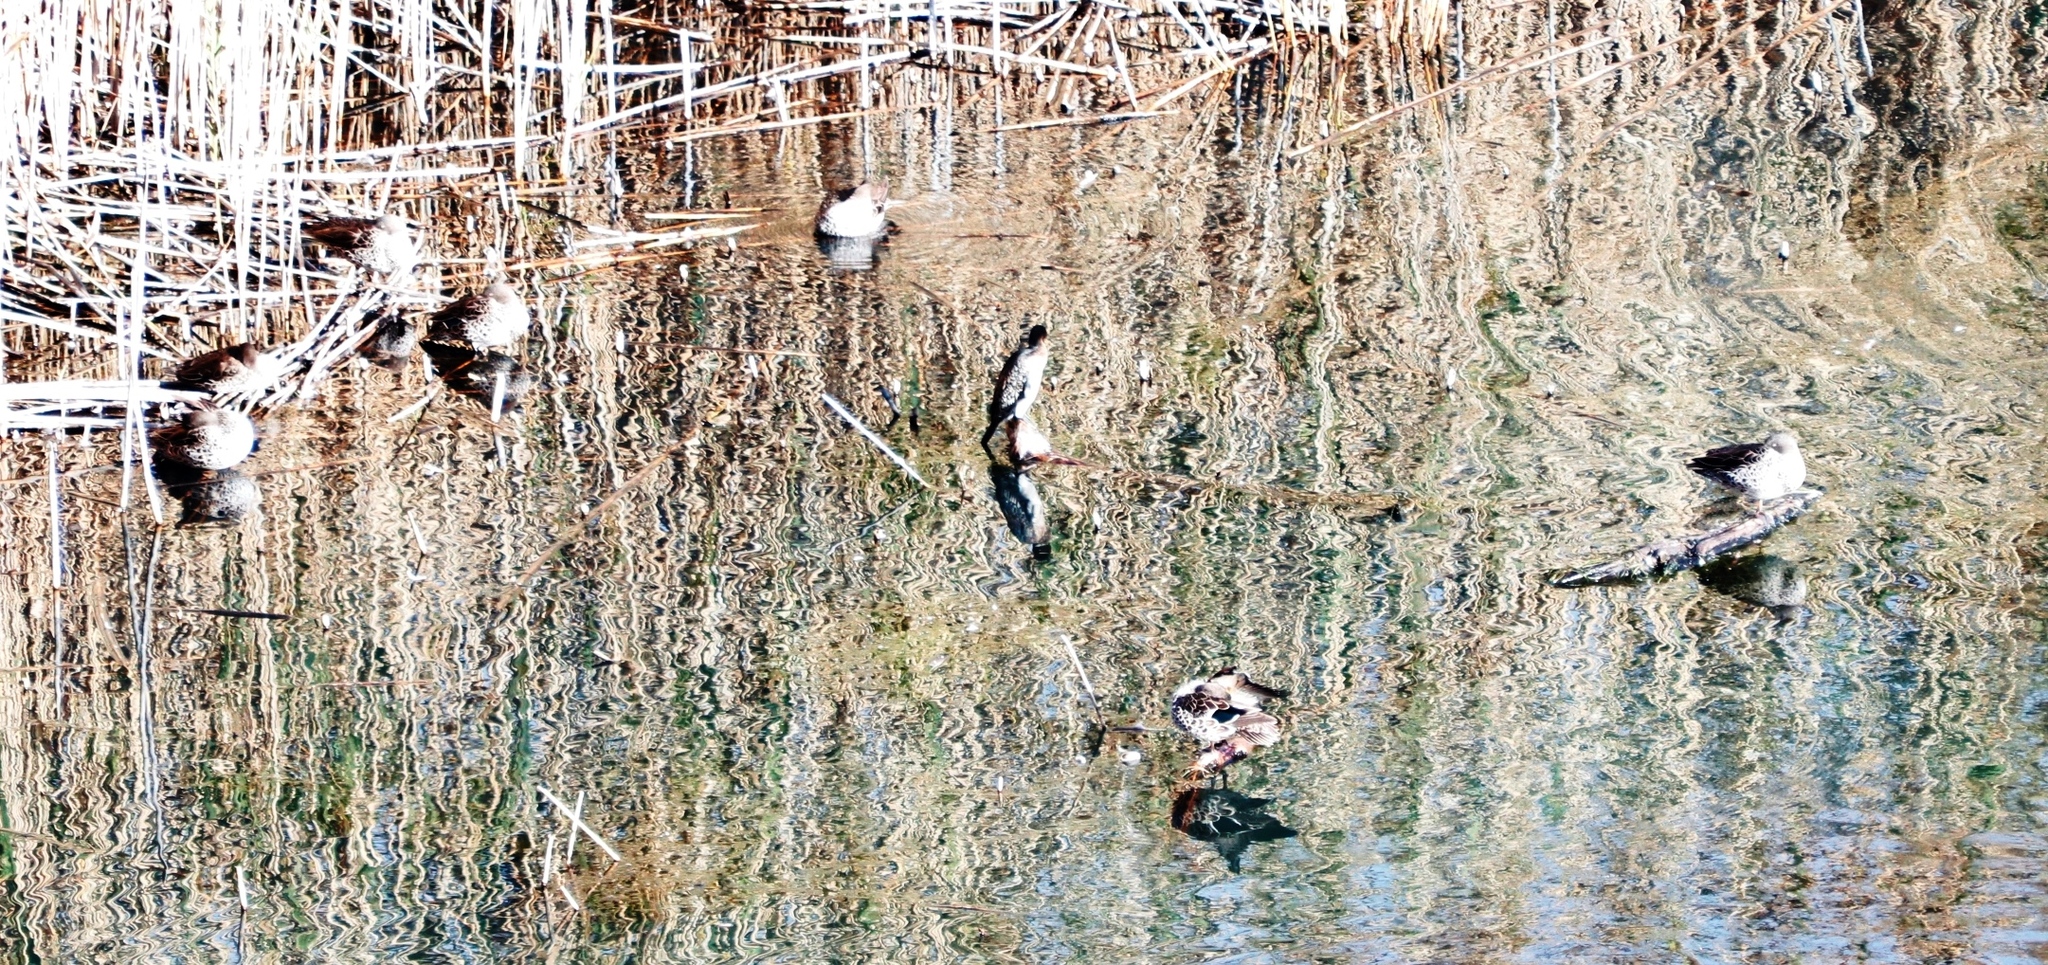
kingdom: Animalia
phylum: Chordata
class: Aves
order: Suliformes
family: Phalacrocoracidae
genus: Microcarbo
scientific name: Microcarbo africanus
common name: Long-tailed cormorant
